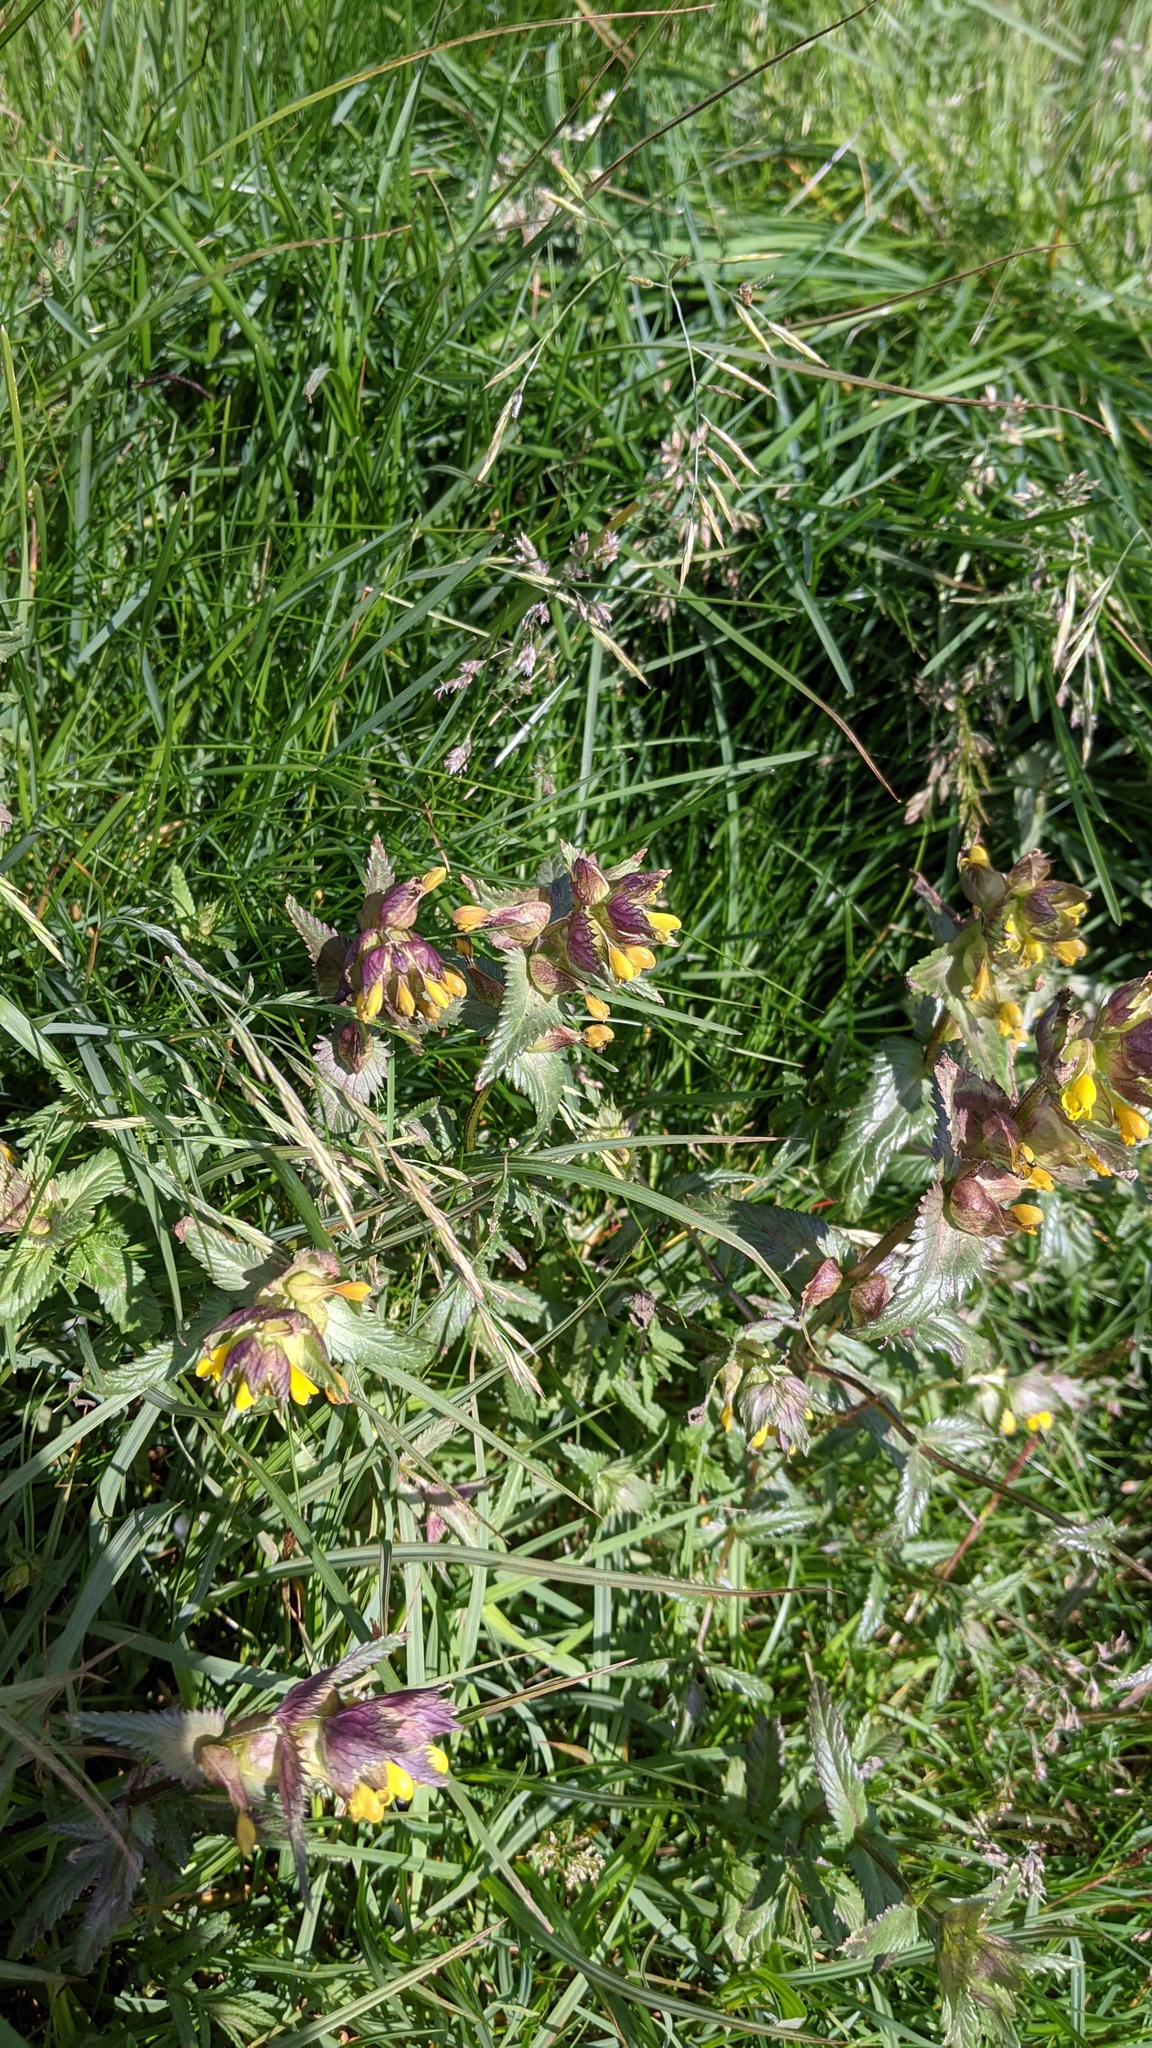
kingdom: Plantae
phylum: Tracheophyta
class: Magnoliopsida
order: Lamiales
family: Orobanchaceae
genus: Rhinanthus
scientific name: Rhinanthus minor
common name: Yellow-rattle
